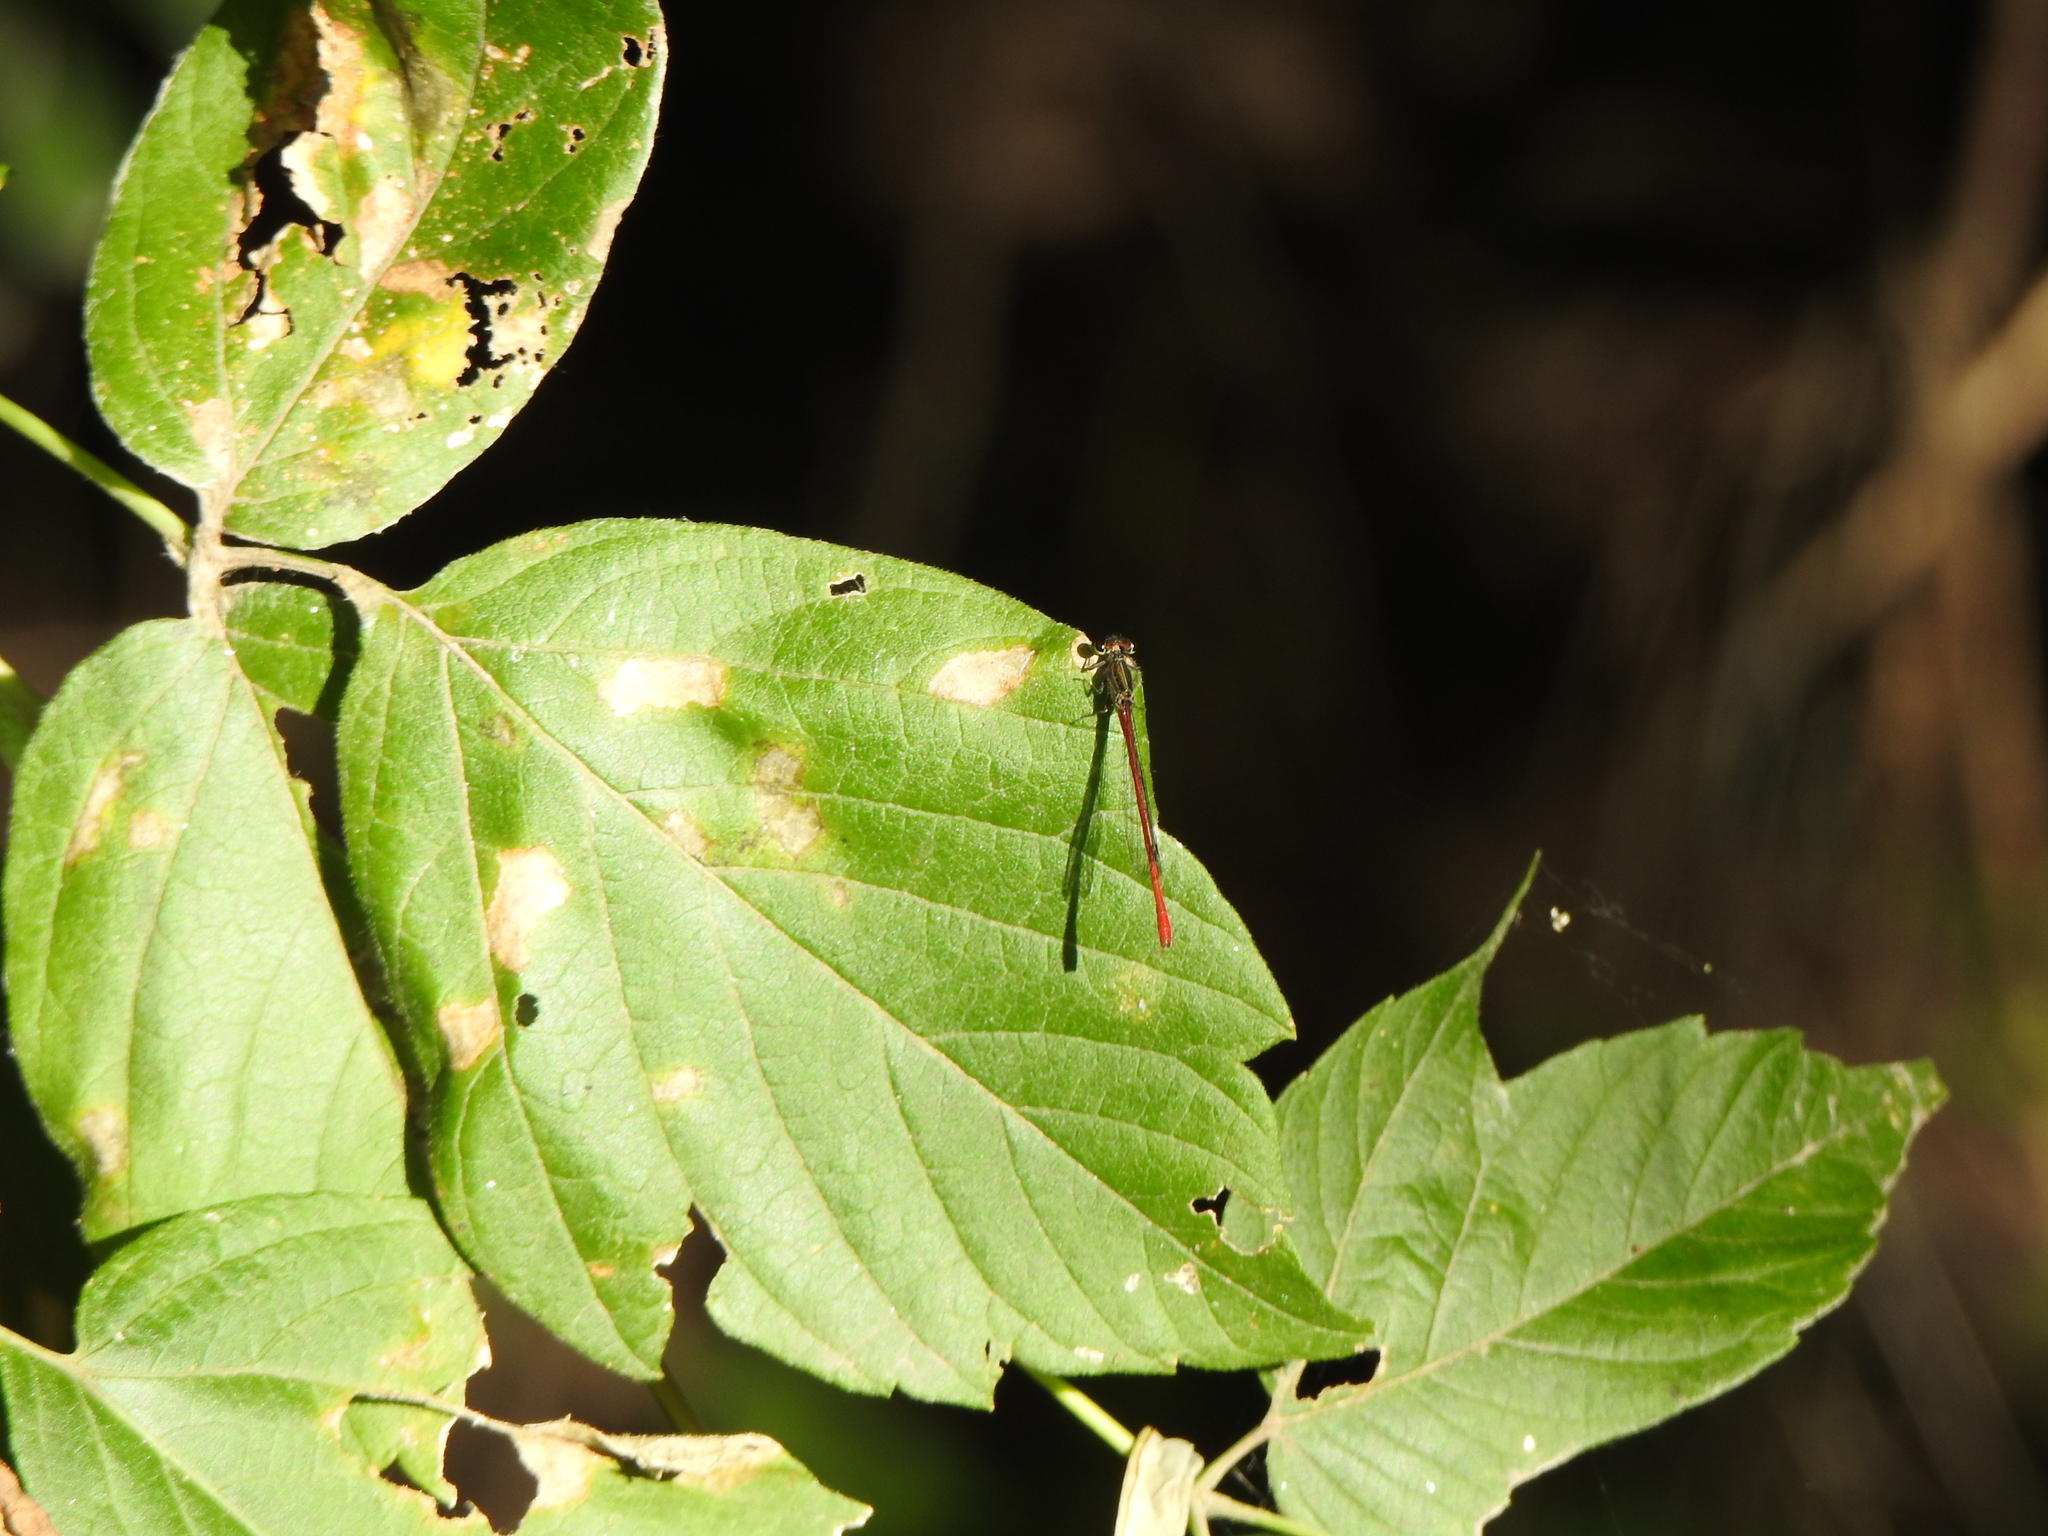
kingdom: Animalia
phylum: Arthropoda
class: Insecta
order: Odonata
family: Coenagrionidae
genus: Telebasis
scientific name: Telebasis willinki
